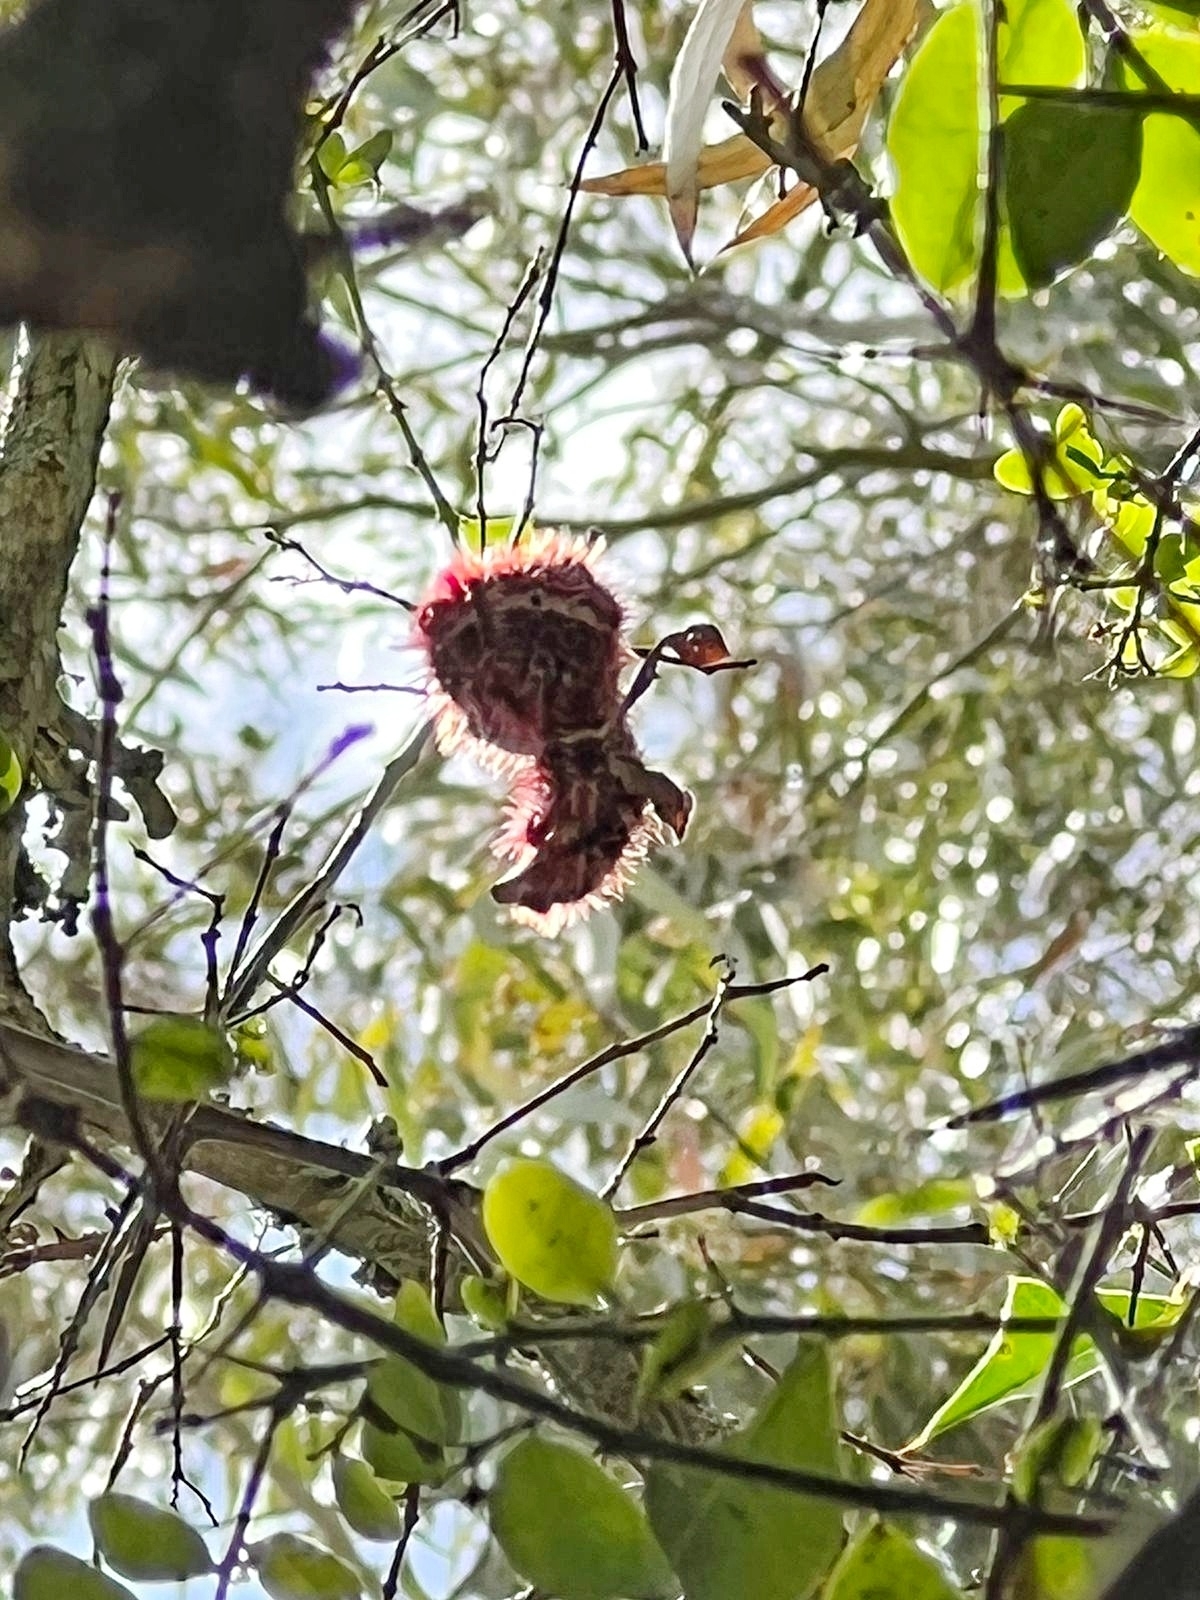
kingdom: Animalia
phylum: Arthropoda
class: Insecta
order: Lepidoptera
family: Nymphalidae
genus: Morpho
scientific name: Morpho epistrophus
